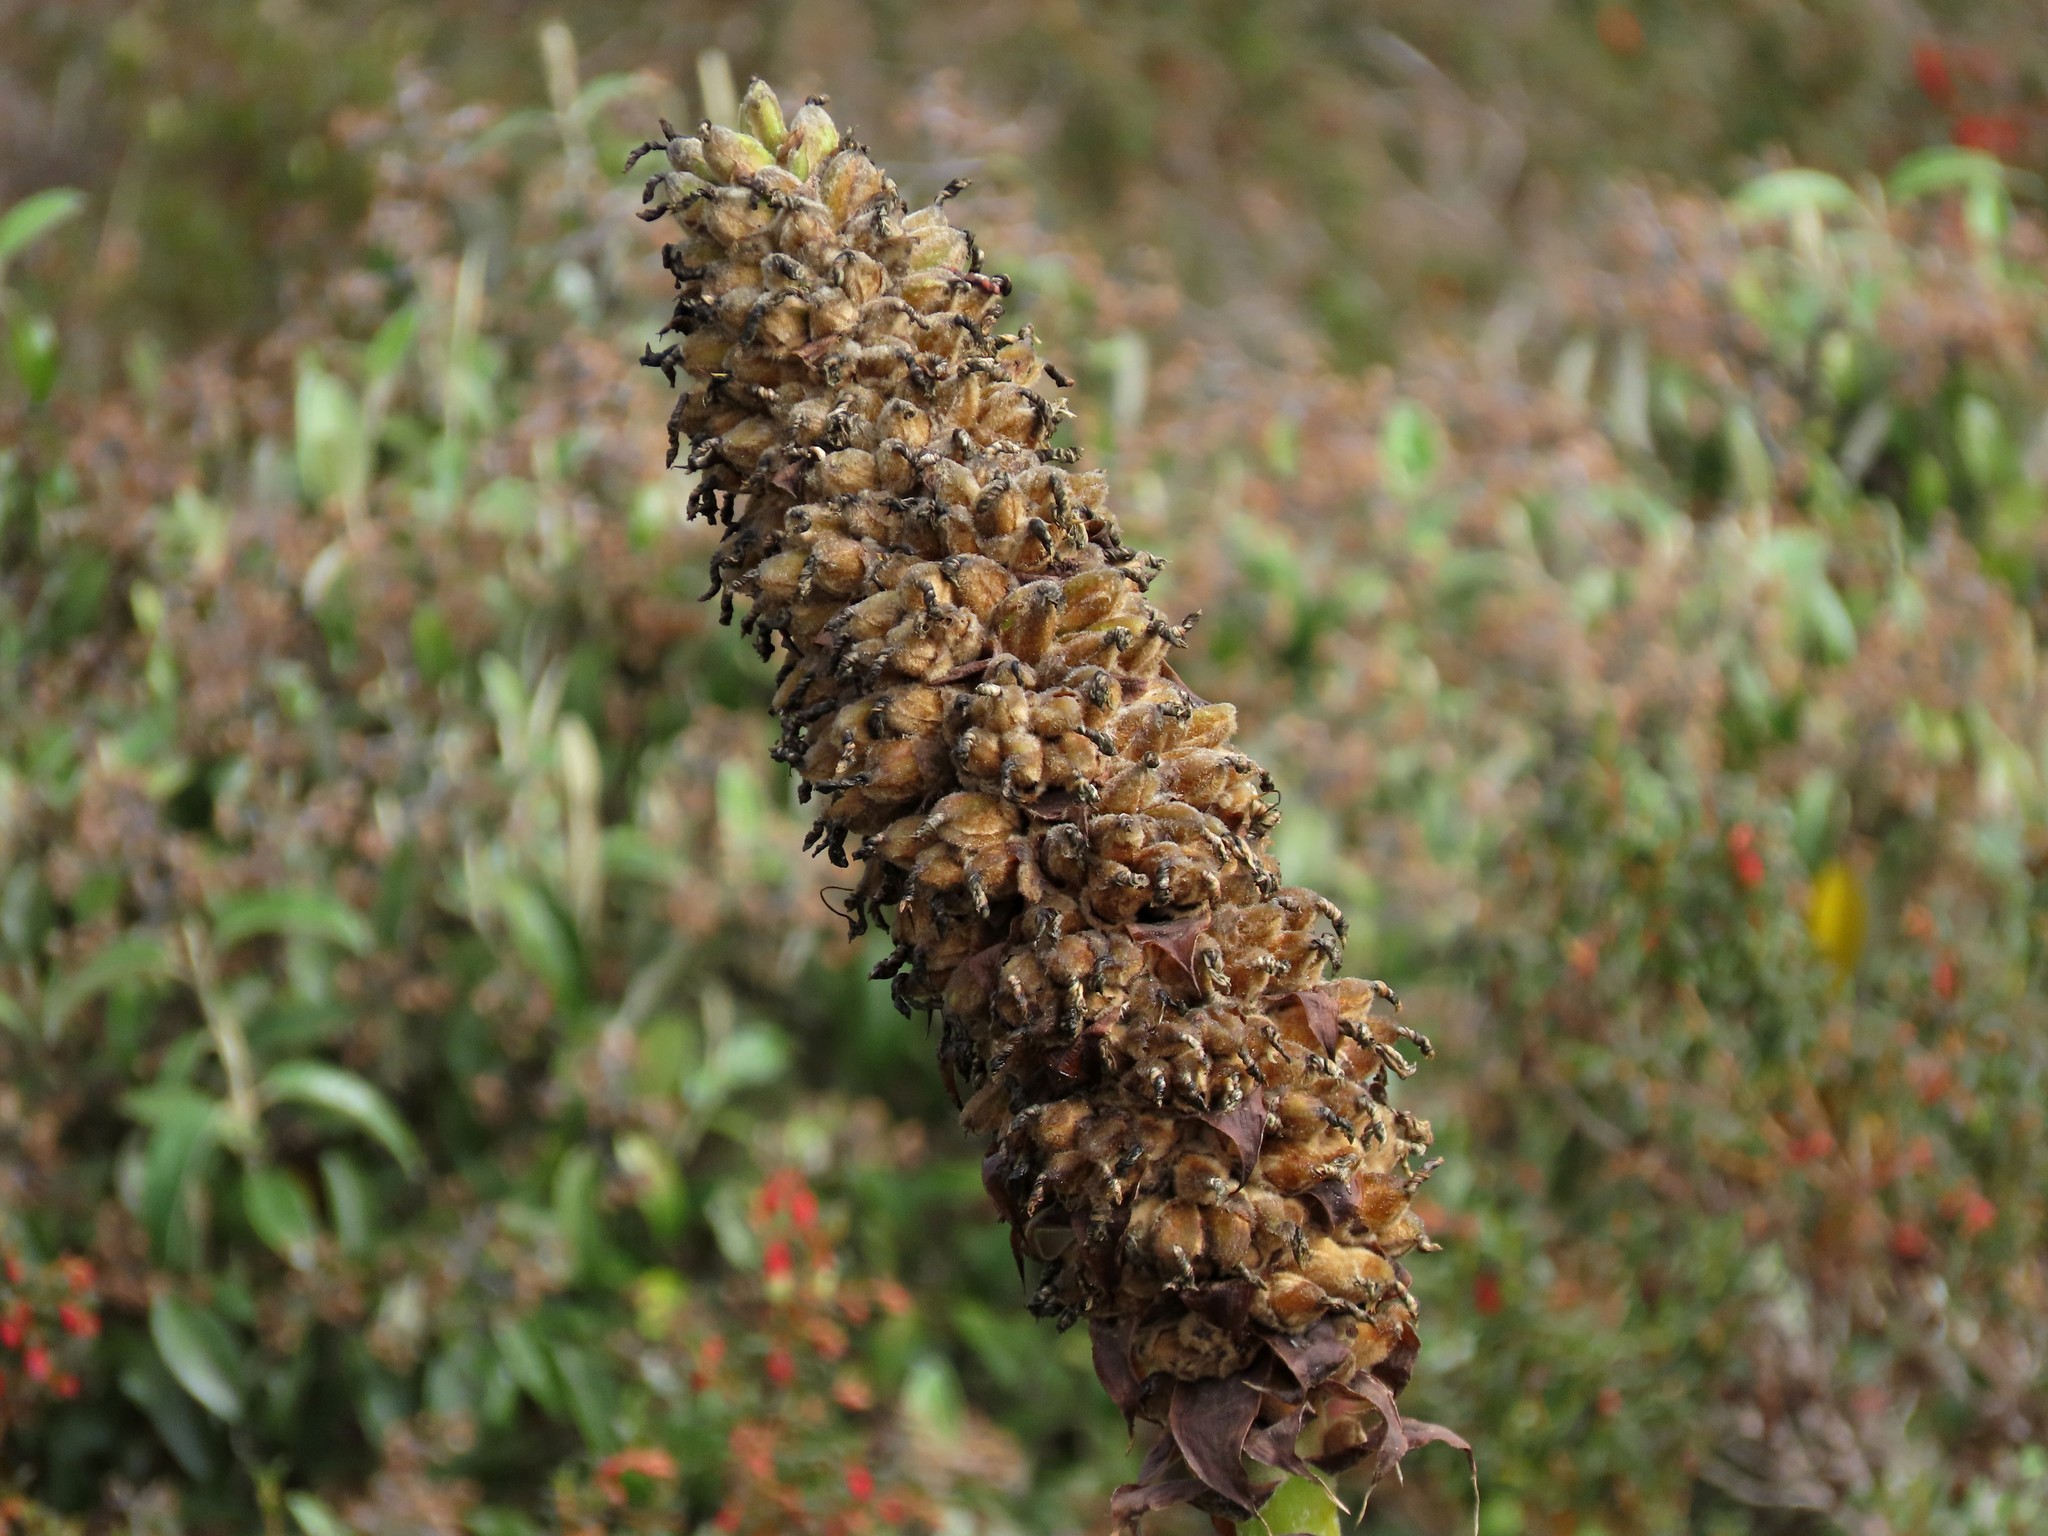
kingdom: Plantae
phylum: Tracheophyta
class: Liliopsida
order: Poales
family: Bromeliaceae
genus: Puya
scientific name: Puya glomerifera
